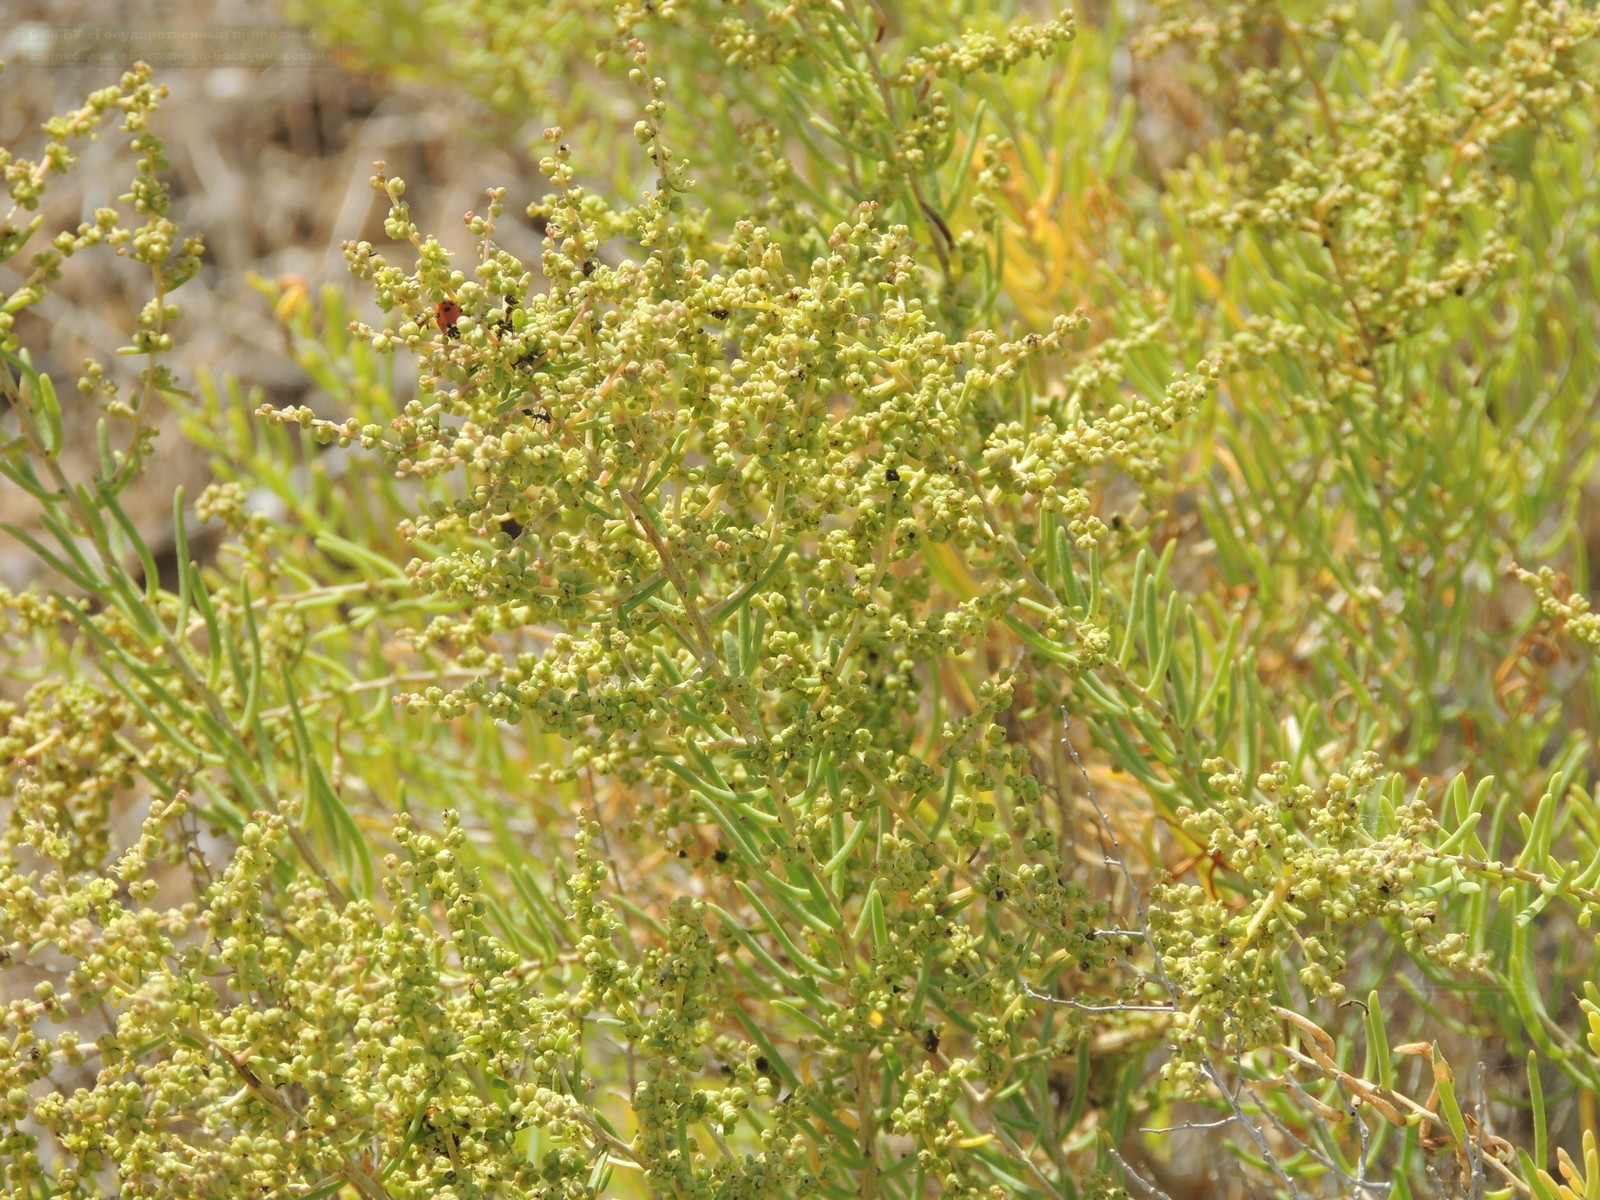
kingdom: Plantae
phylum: Tracheophyta
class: Magnoliopsida
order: Caryophyllales
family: Amaranthaceae
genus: Suaeda
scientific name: Suaeda physophora
